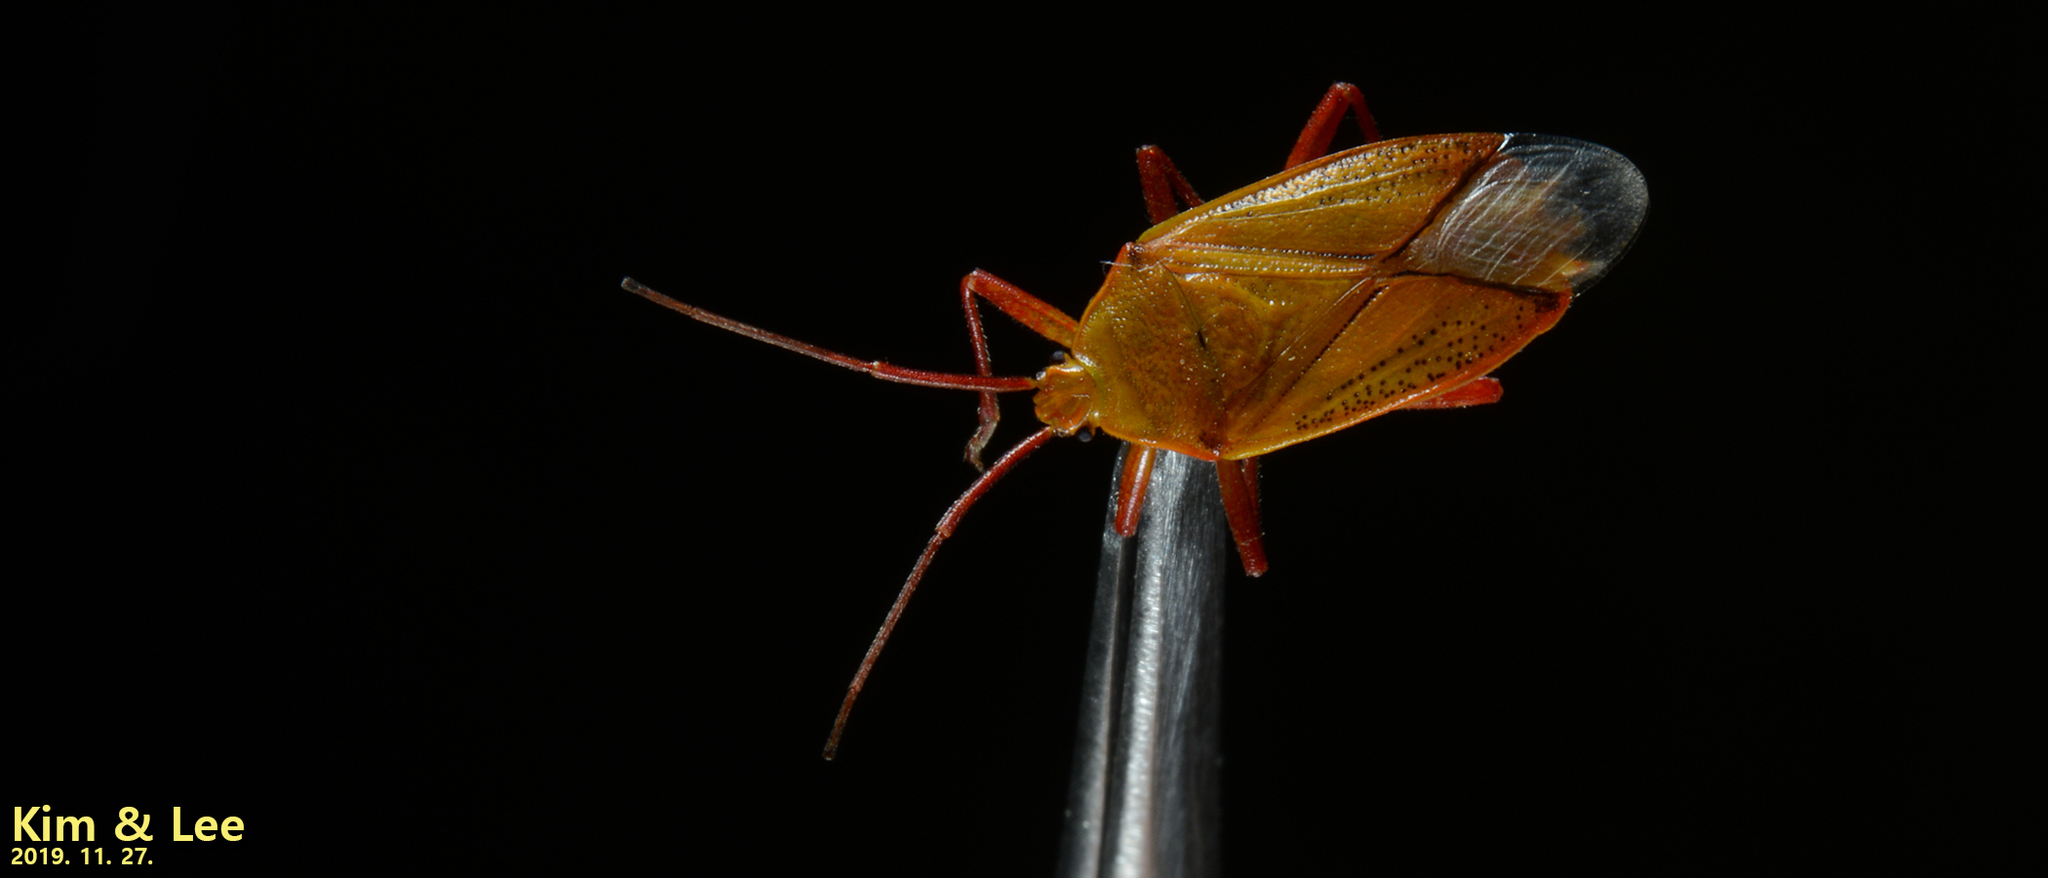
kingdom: Animalia
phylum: Arthropoda
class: Insecta
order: Hemiptera
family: Urostylididae
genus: Urostylis
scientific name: Urostylis hubeiensis
